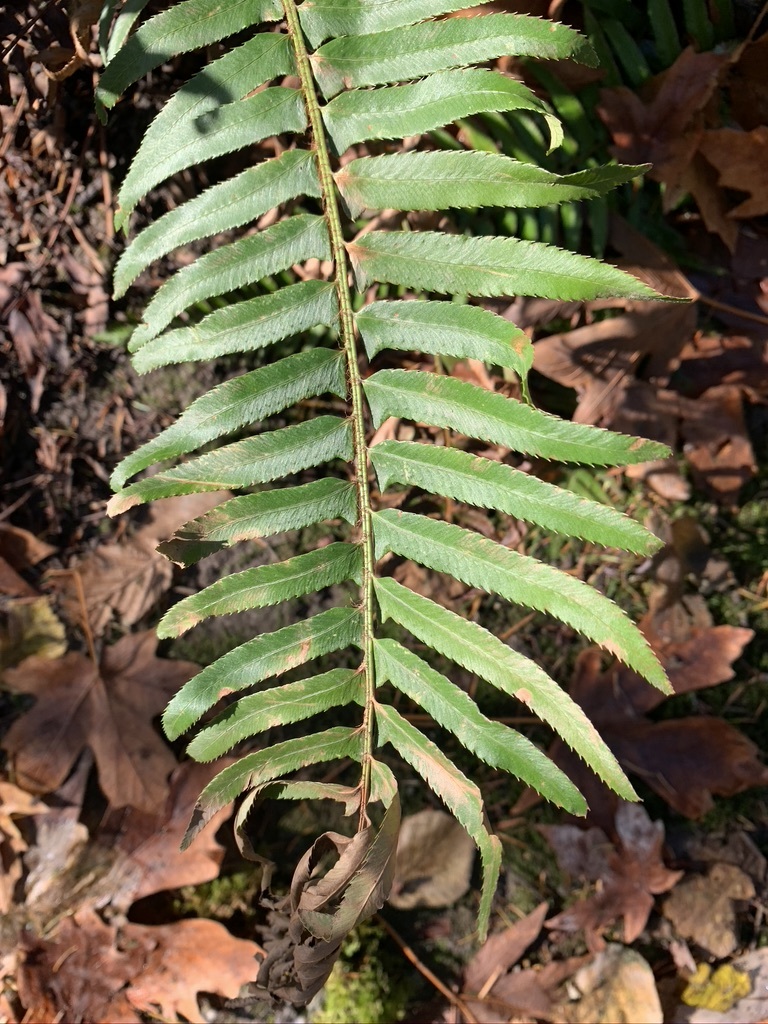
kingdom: Plantae
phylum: Tracheophyta
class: Polypodiopsida
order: Polypodiales
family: Dryopteridaceae
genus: Polystichum
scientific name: Polystichum munitum
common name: Western sword-fern
